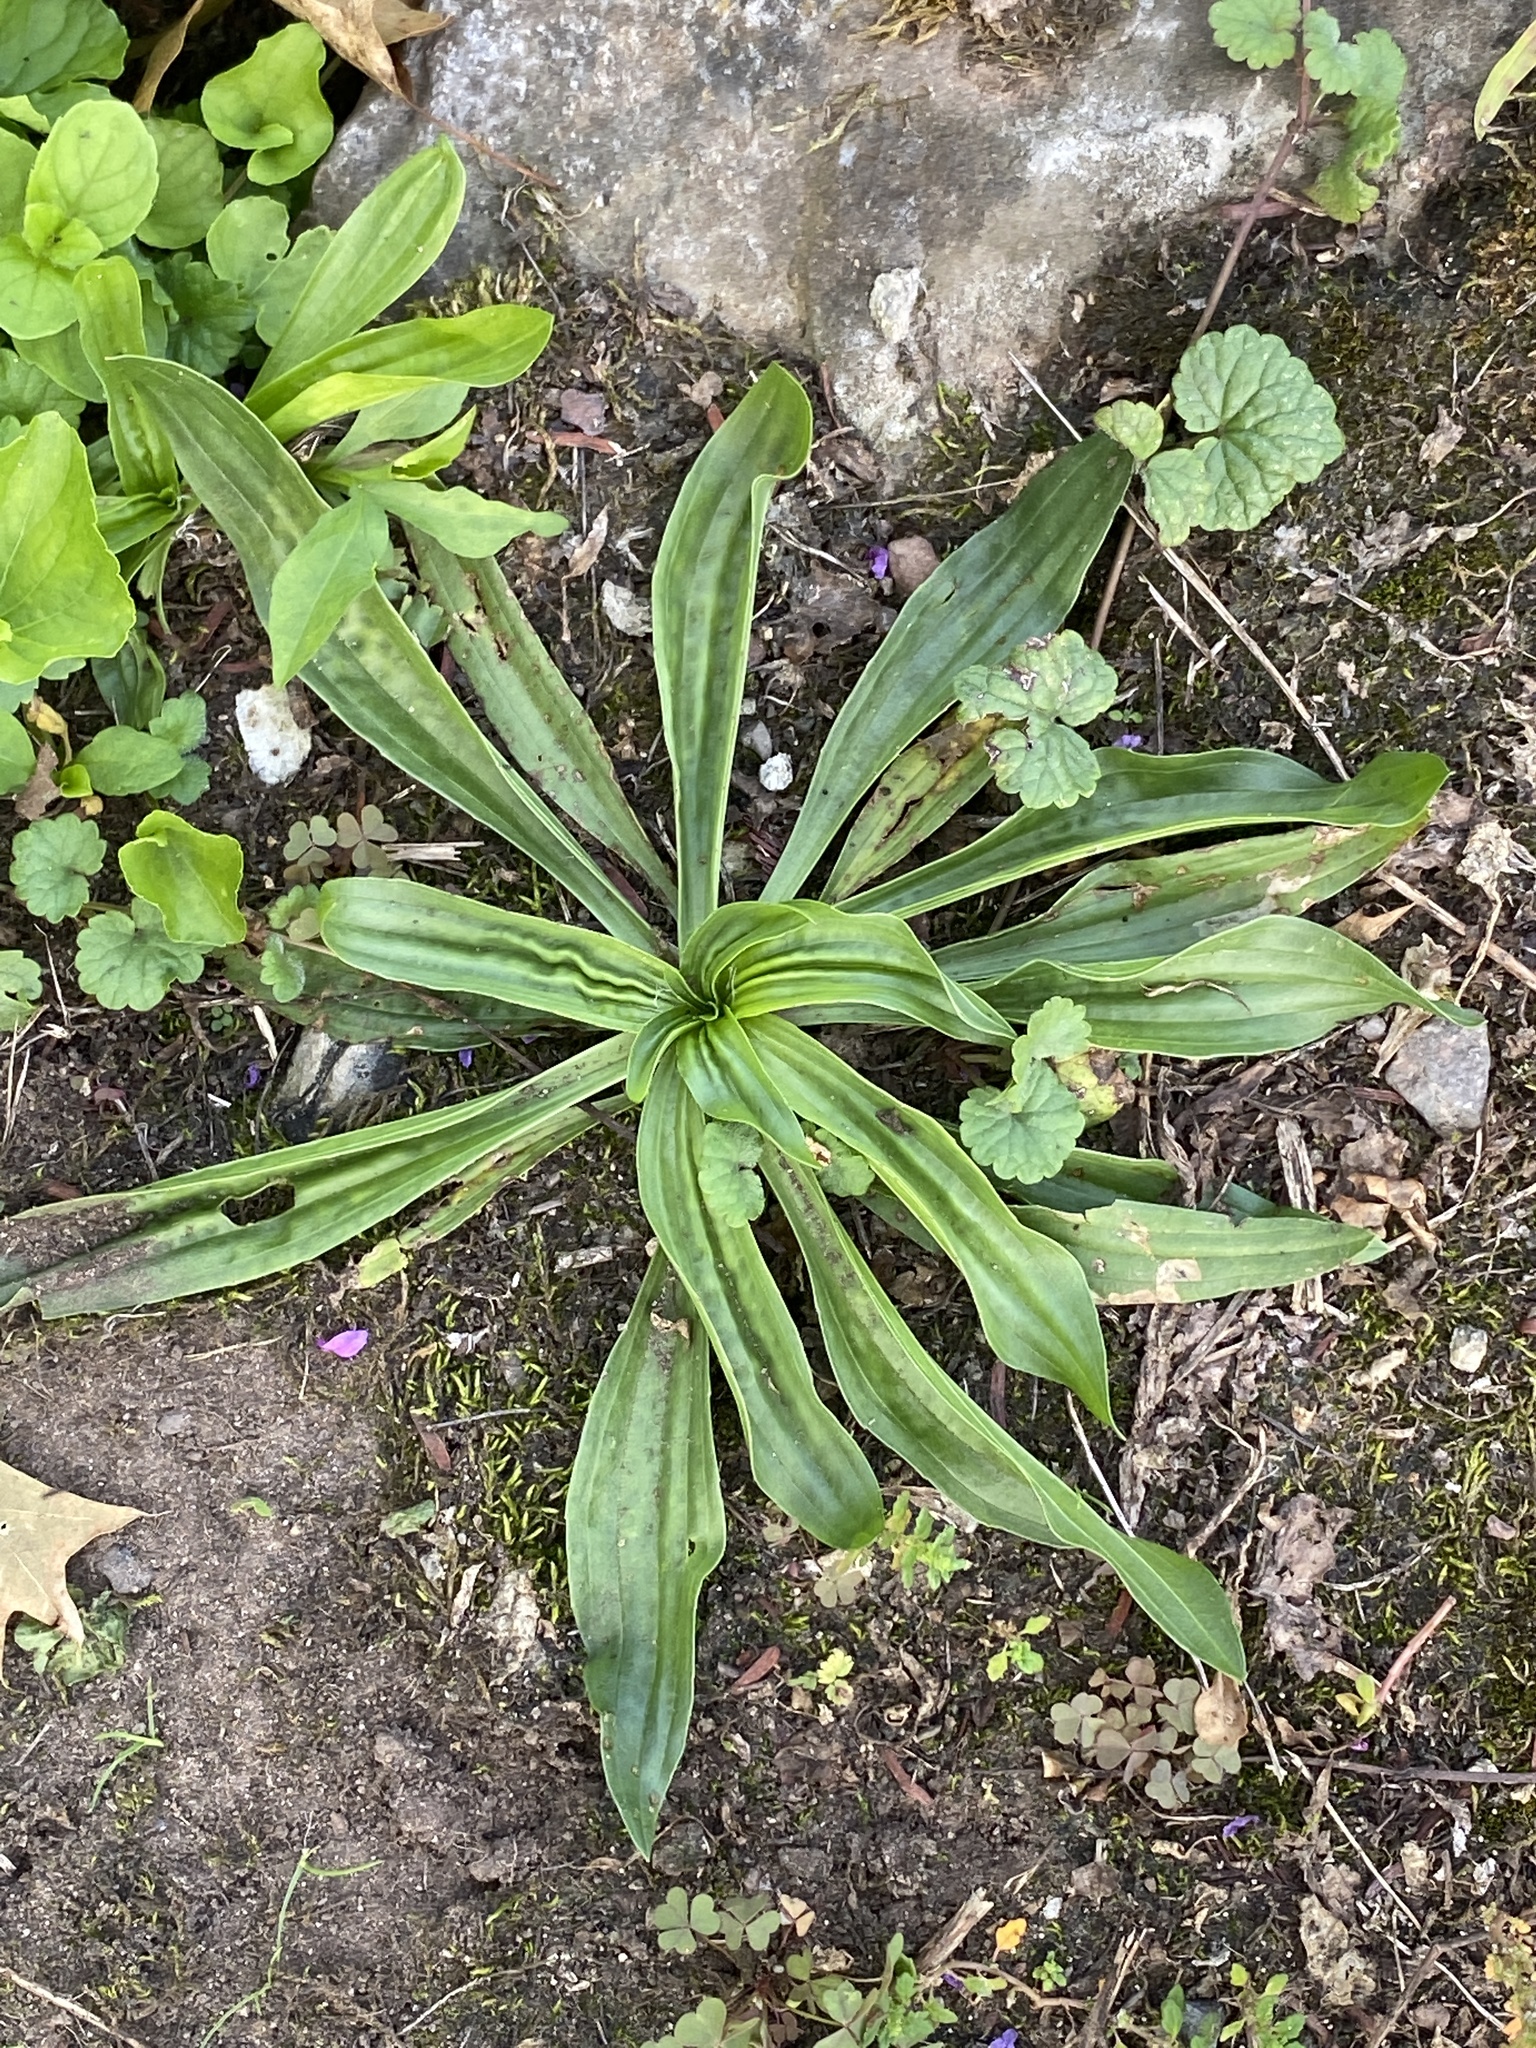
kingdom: Plantae
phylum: Tracheophyta
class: Magnoliopsida
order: Lamiales
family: Plantaginaceae
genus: Plantago
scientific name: Plantago lanceolata
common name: Ribwort plantain
